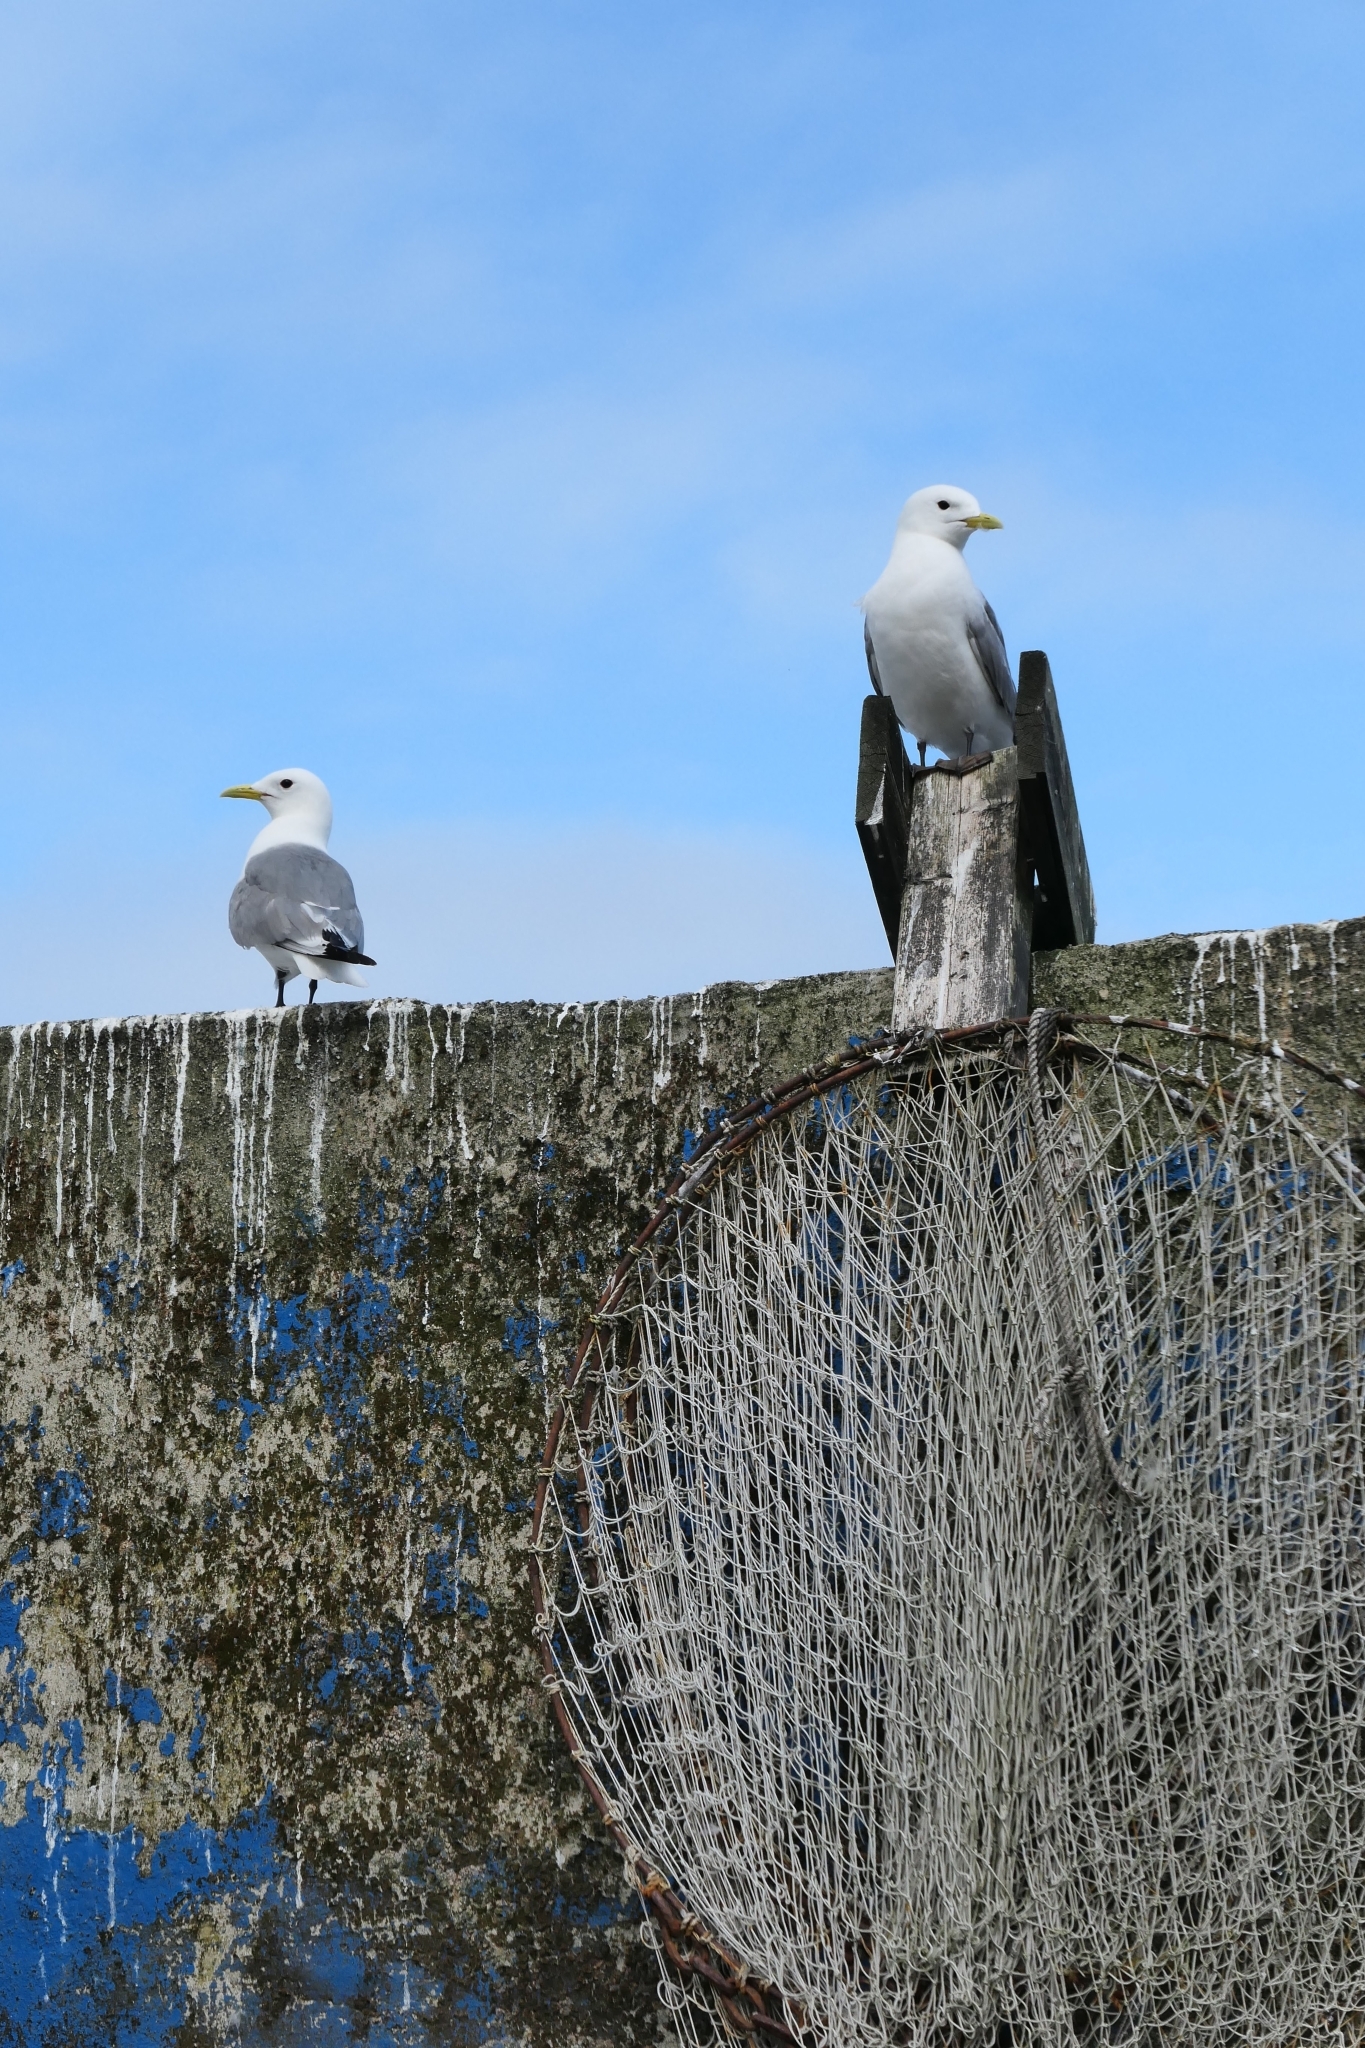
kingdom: Animalia
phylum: Chordata
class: Aves
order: Charadriiformes
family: Laridae
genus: Rissa
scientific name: Rissa tridactyla
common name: Black-legged kittiwake
